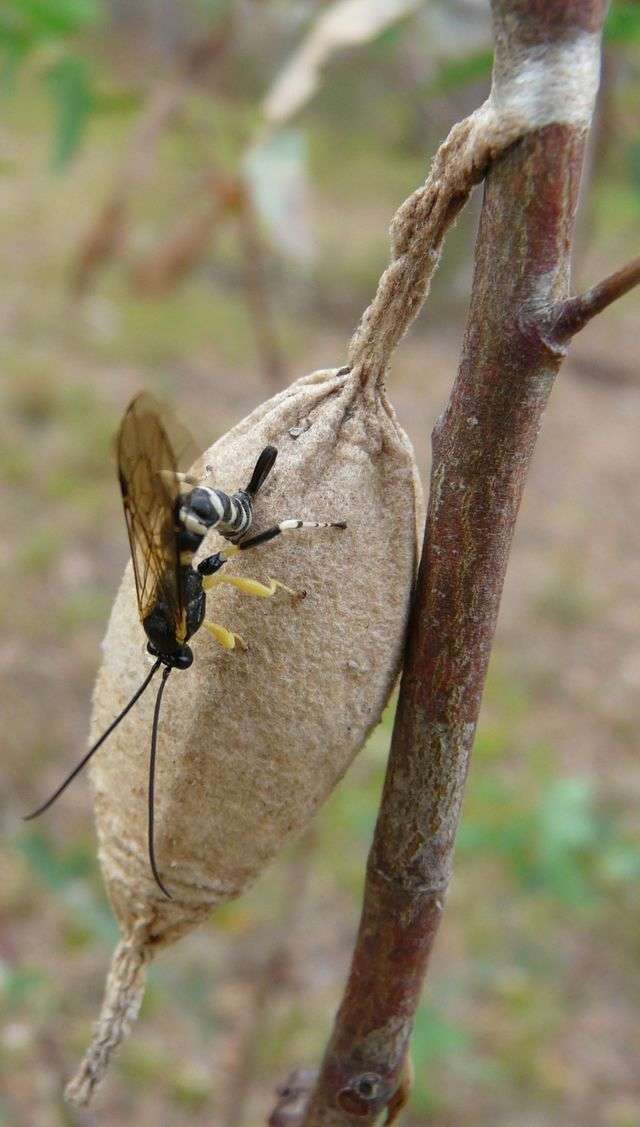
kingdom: Animalia
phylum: Arthropoda
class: Insecta
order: Hymenoptera
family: Ichneumonidae
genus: Sericopimpla
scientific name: Sericopimpla australis
